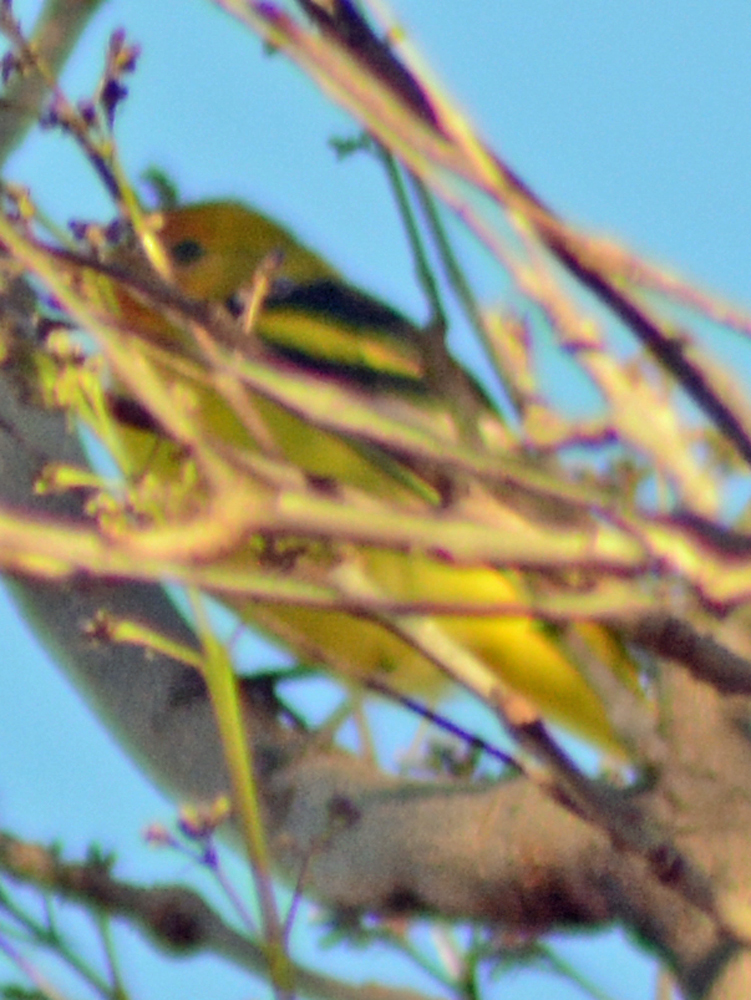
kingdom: Animalia
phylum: Chordata
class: Aves
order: Passeriformes
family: Cardinalidae
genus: Piranga
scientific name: Piranga ludoviciana
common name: Western tanager
